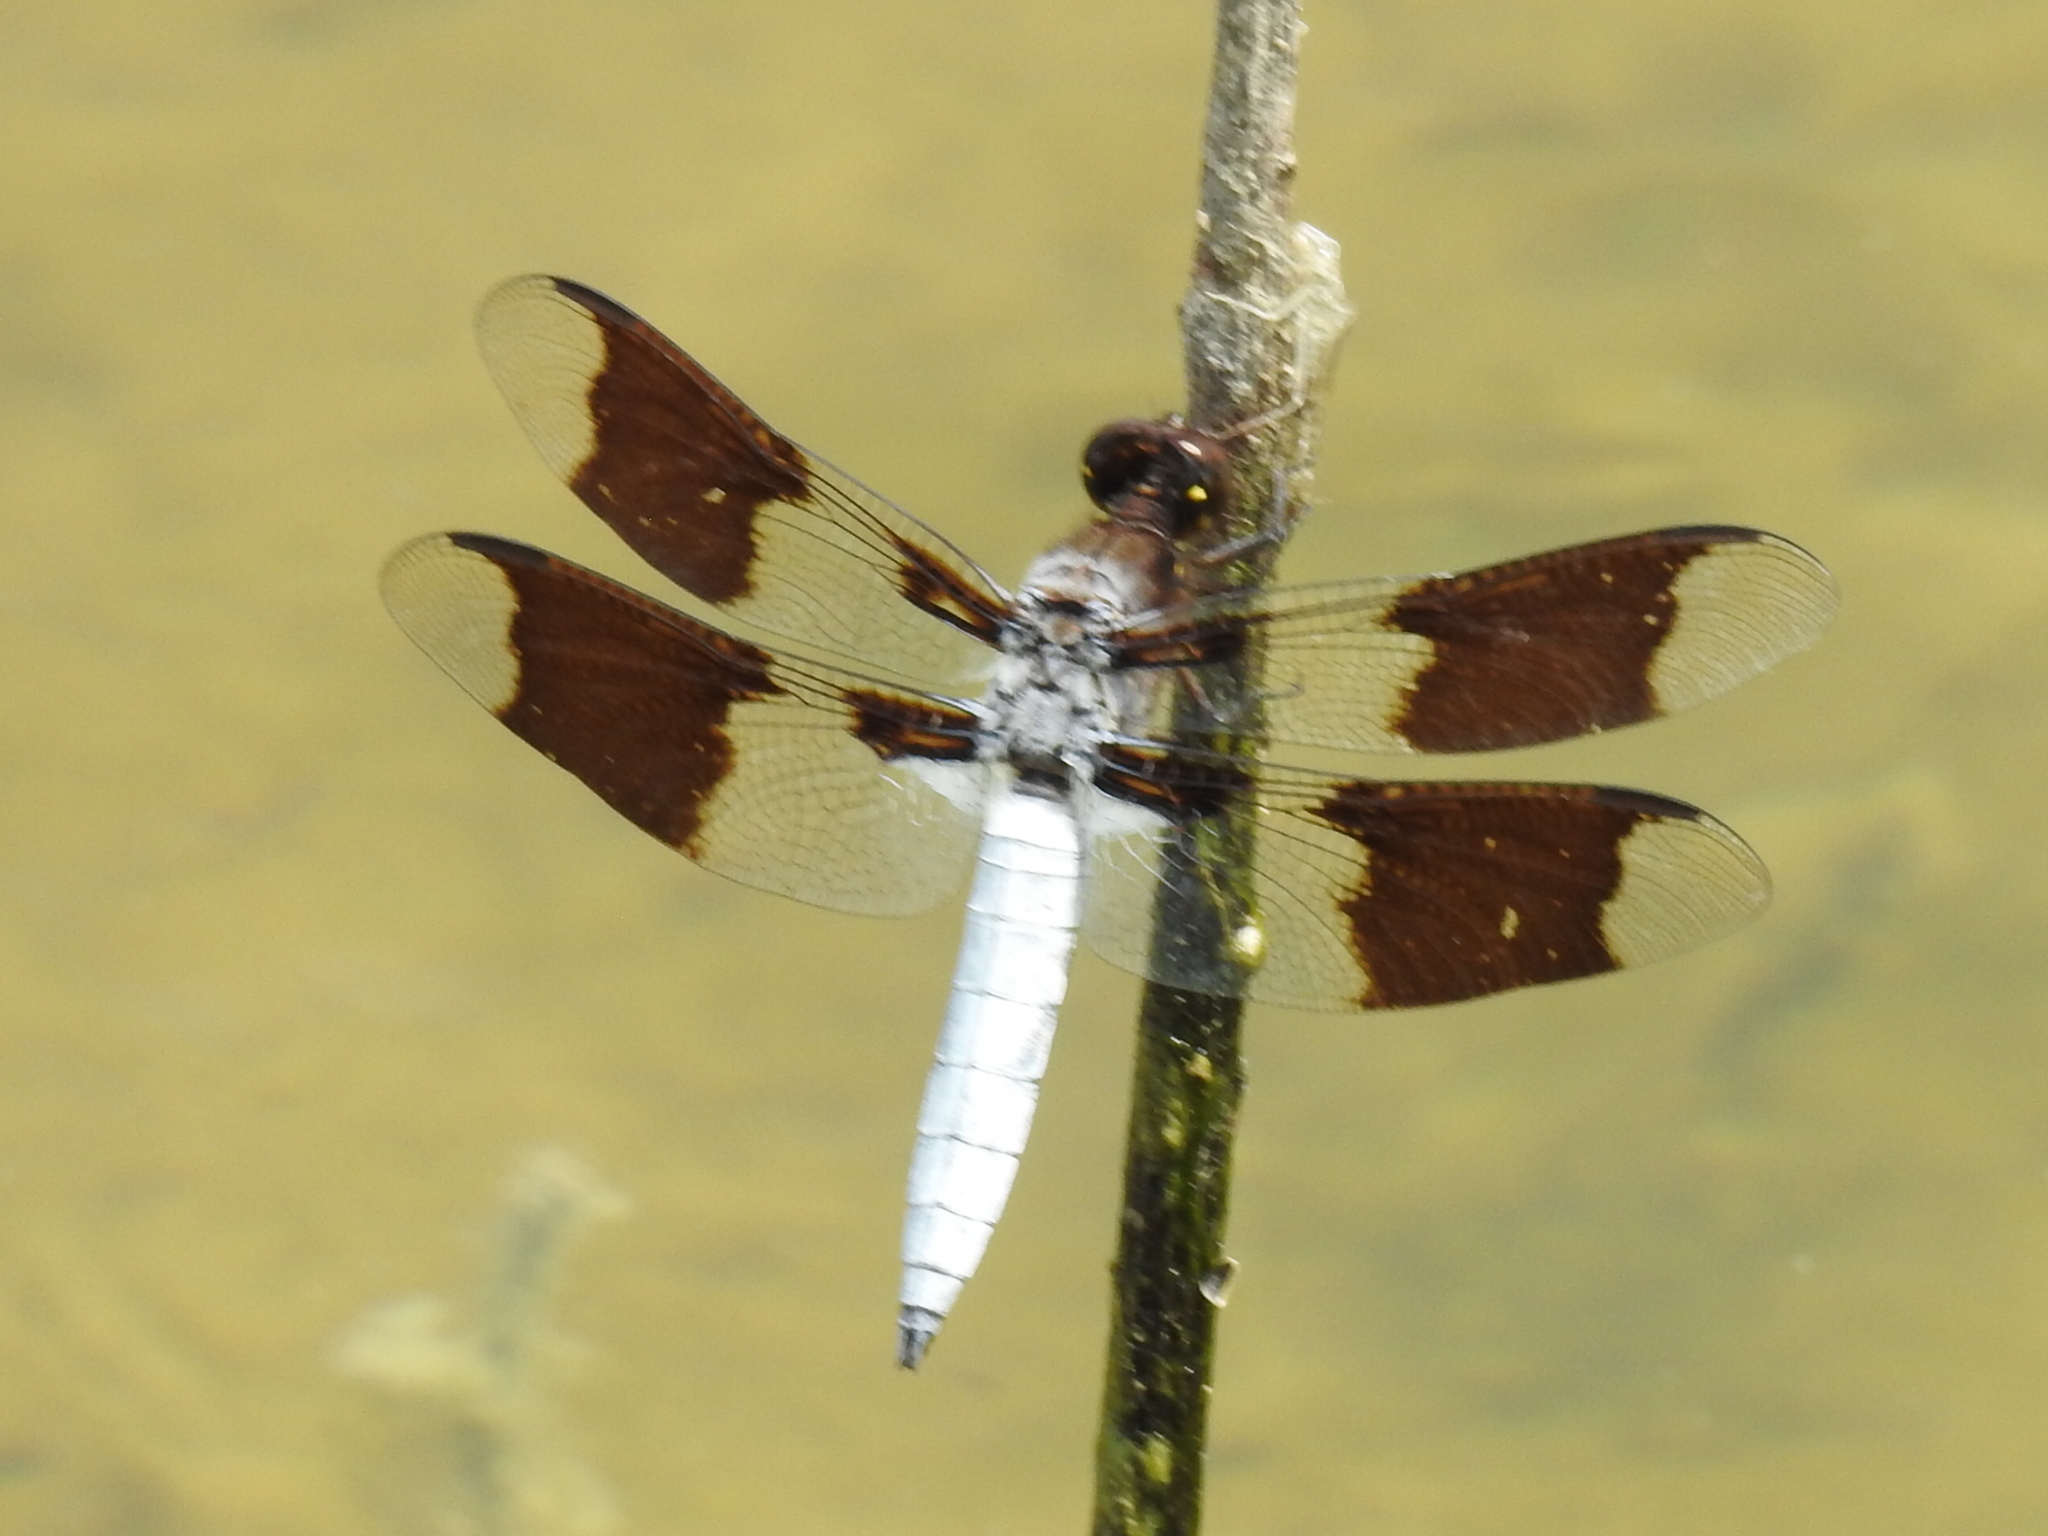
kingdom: Animalia
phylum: Arthropoda
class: Insecta
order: Odonata
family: Libellulidae
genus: Plathemis
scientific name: Plathemis lydia
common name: Common whitetail
